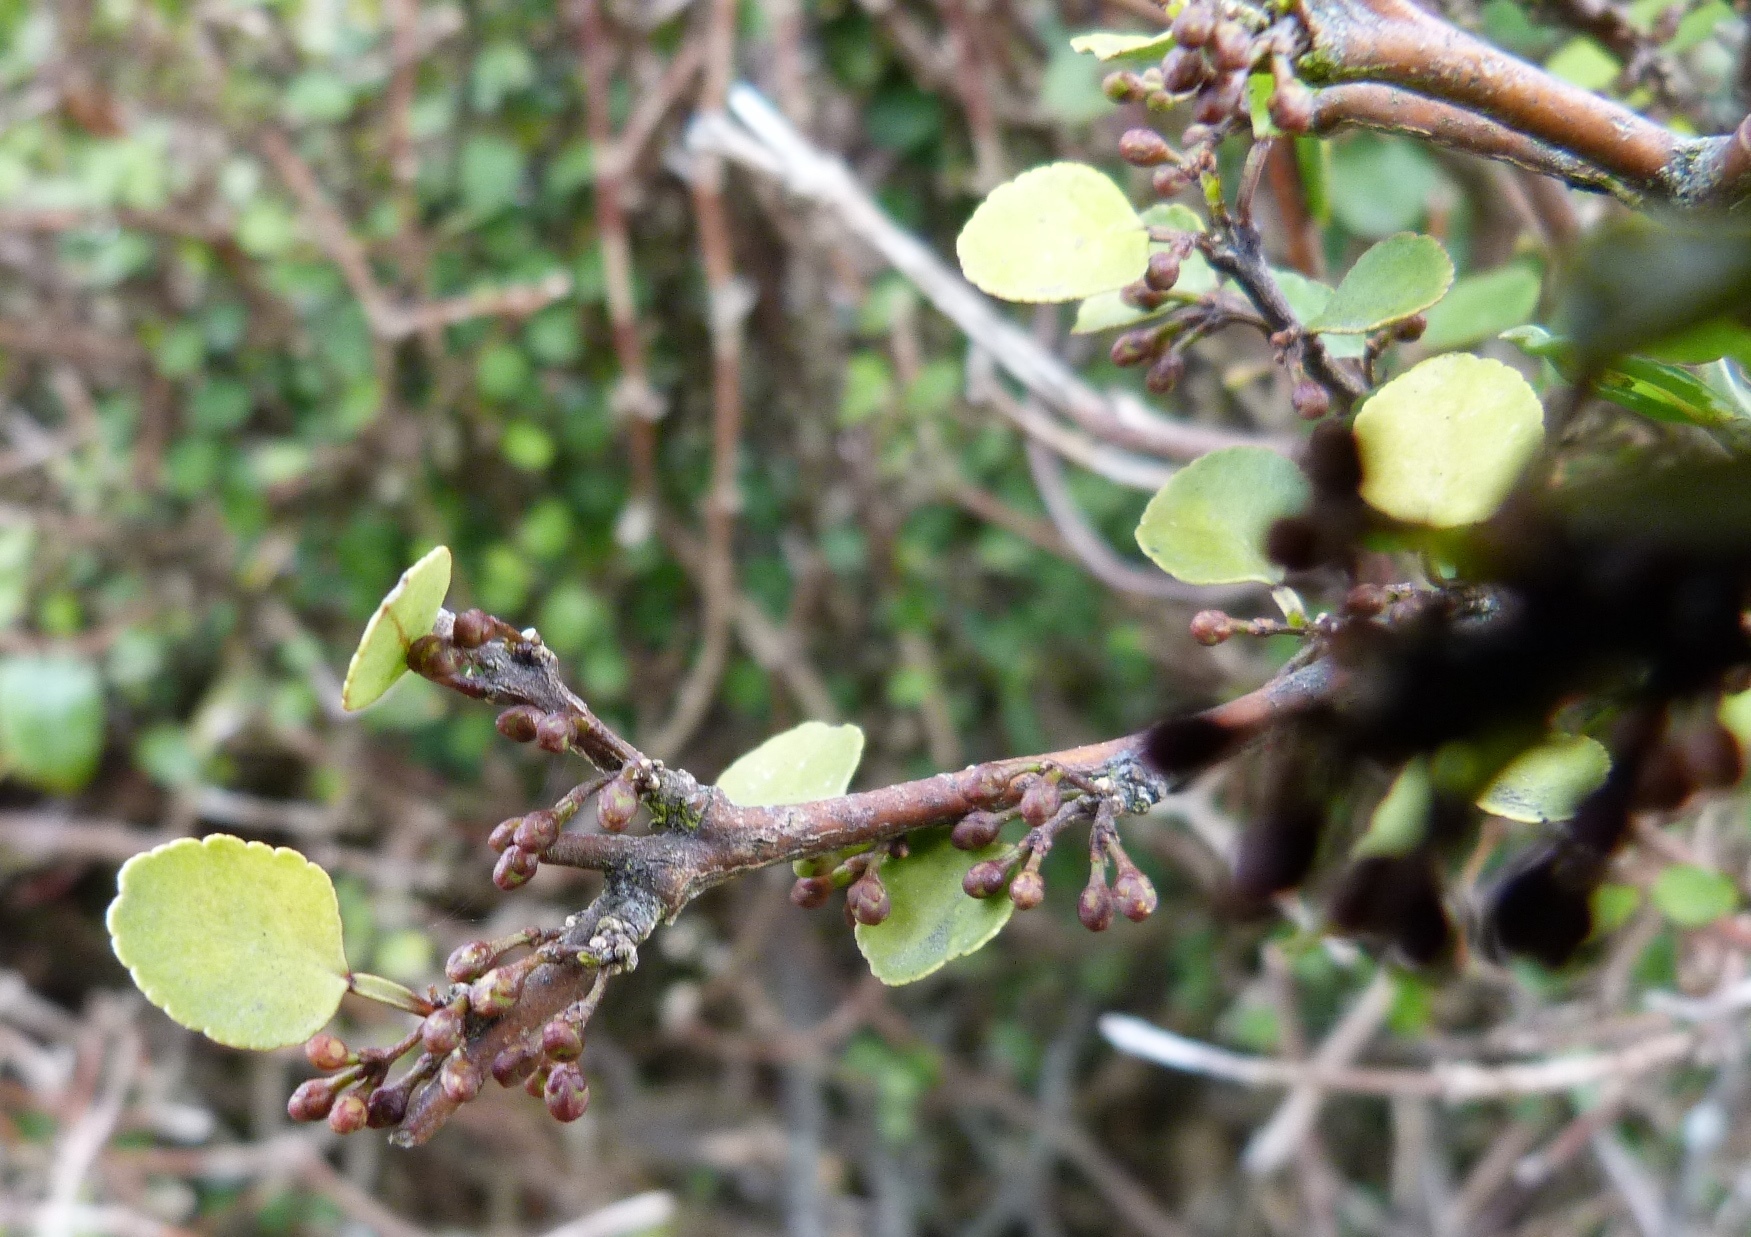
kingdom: Plantae
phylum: Tracheophyta
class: Magnoliopsida
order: Sapindales
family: Rutaceae
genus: Melicope
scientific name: Melicope simplex
